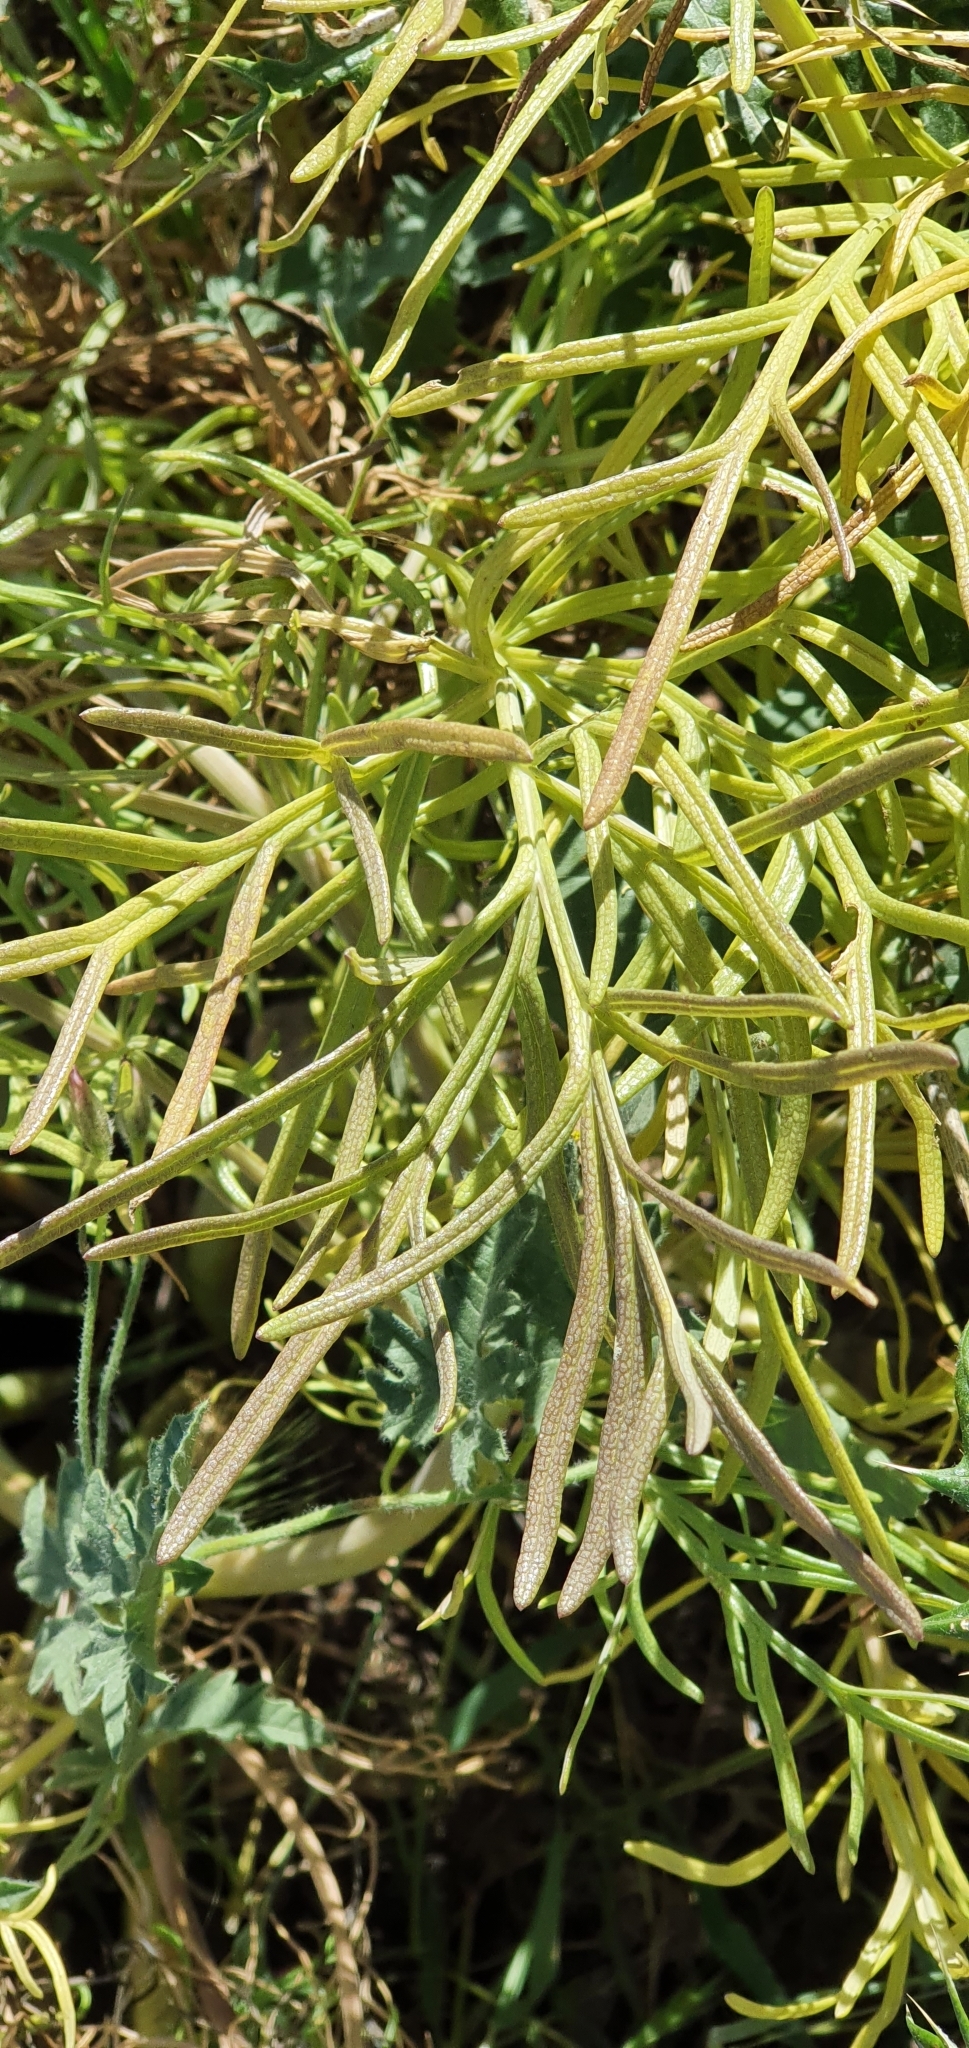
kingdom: Plantae
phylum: Tracheophyta
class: Magnoliopsida
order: Apiales
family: Apiaceae
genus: Thapsia
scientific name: Thapsia garganica
